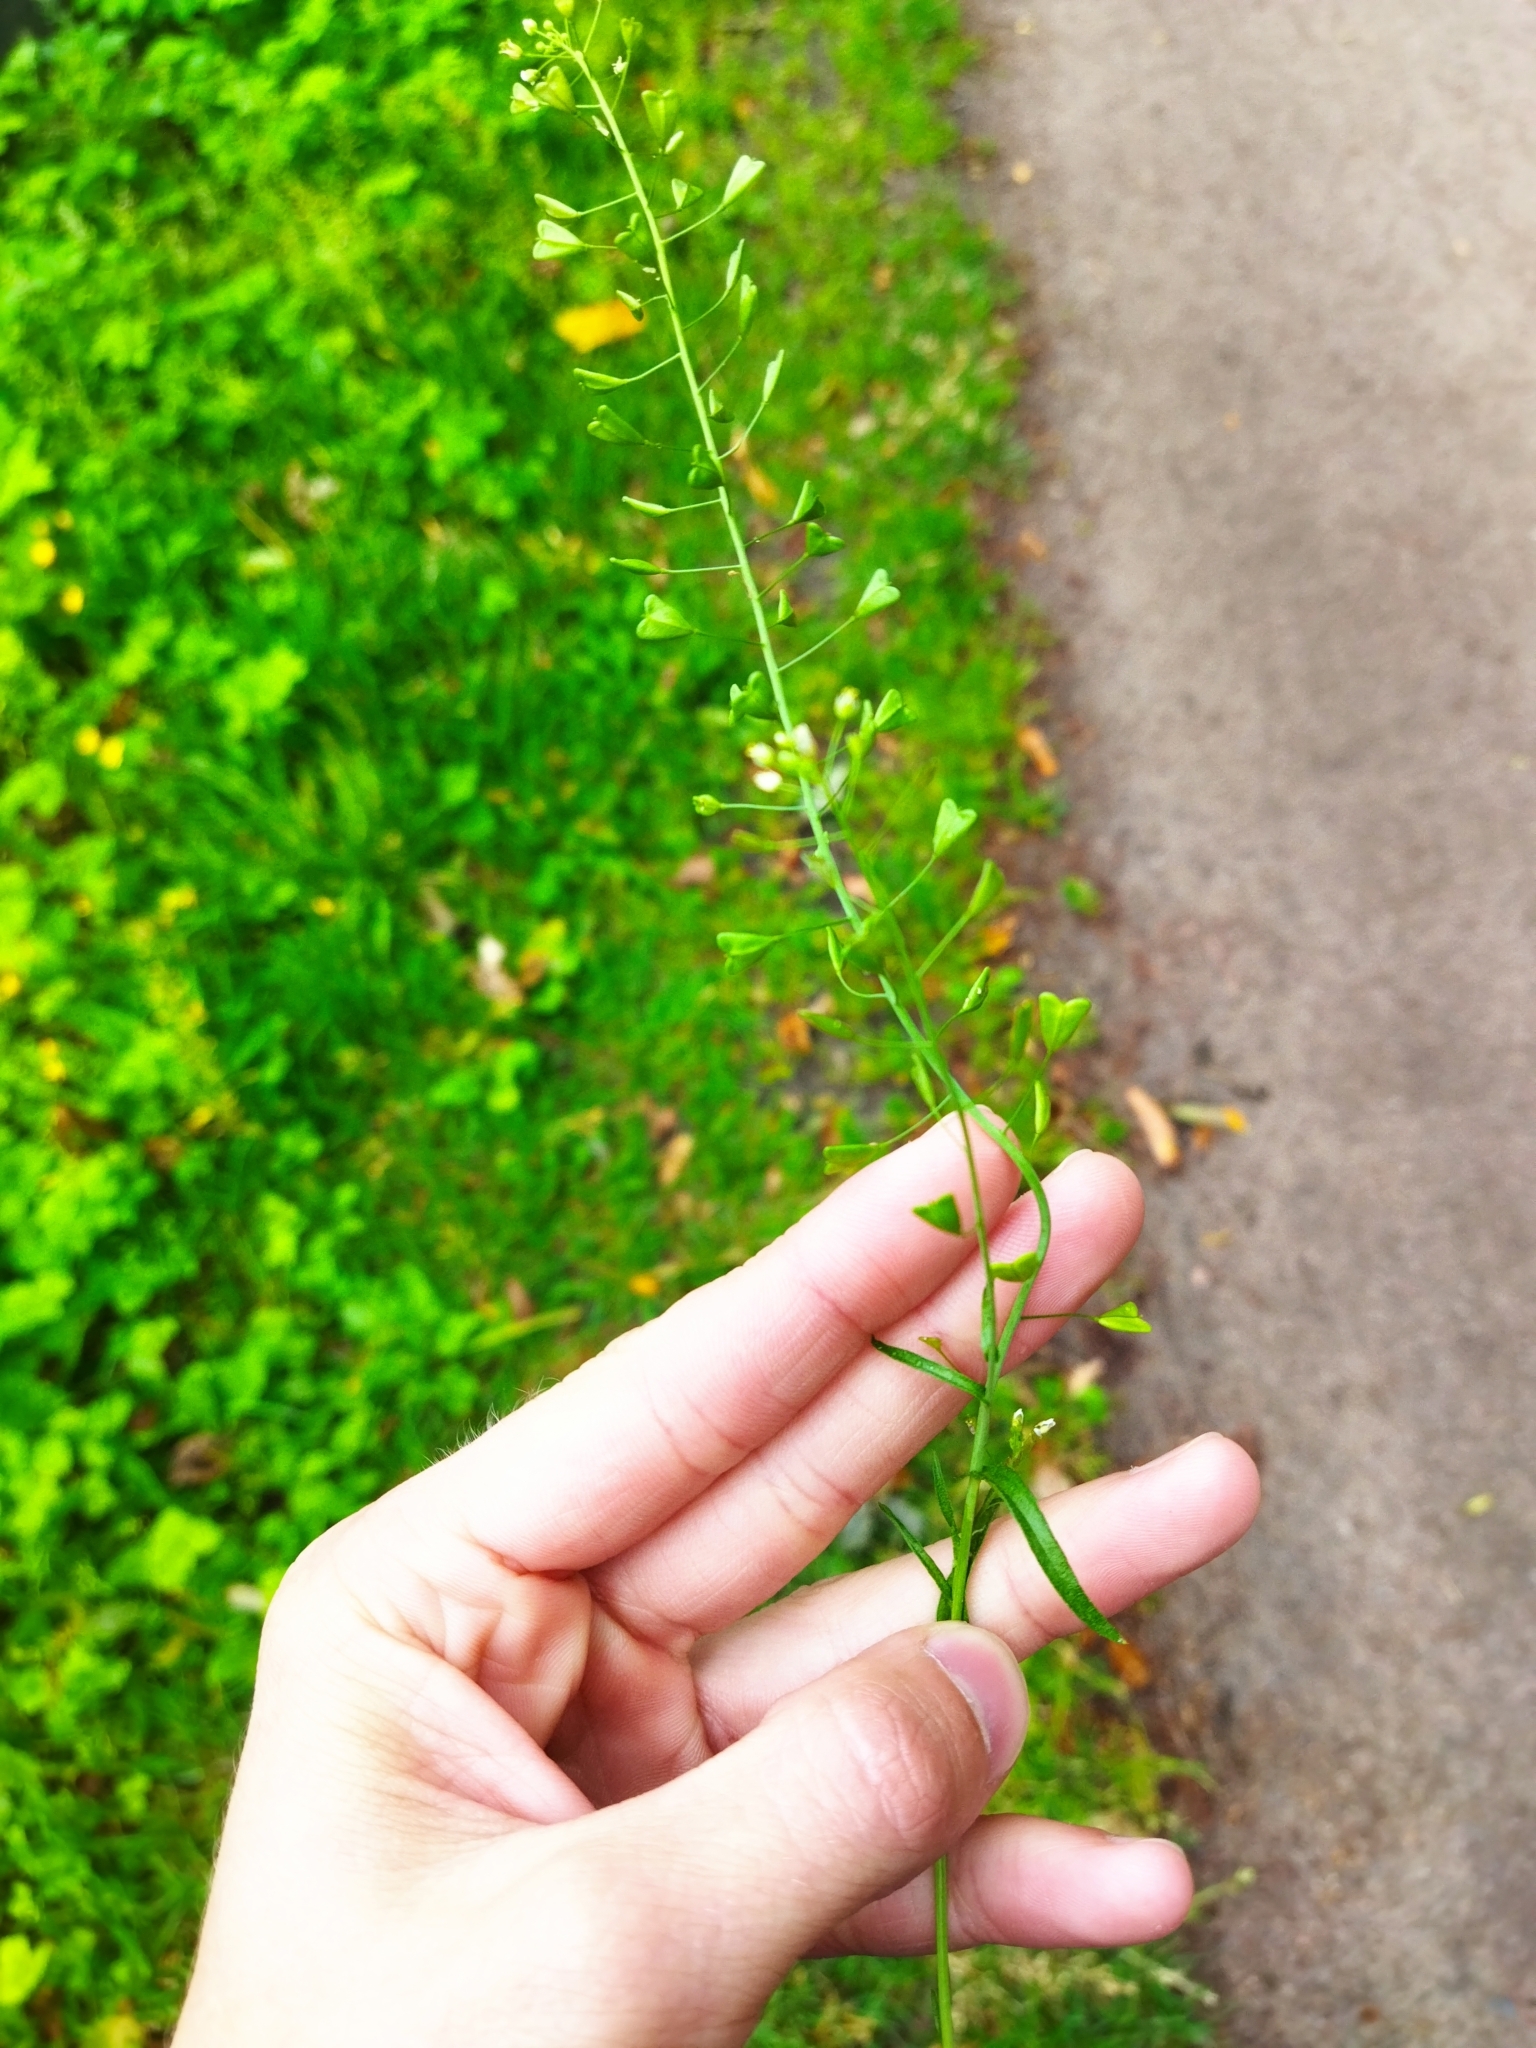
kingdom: Plantae
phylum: Tracheophyta
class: Magnoliopsida
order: Brassicales
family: Brassicaceae
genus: Capsella
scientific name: Capsella bursa-pastoris
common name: Shepherd's purse
